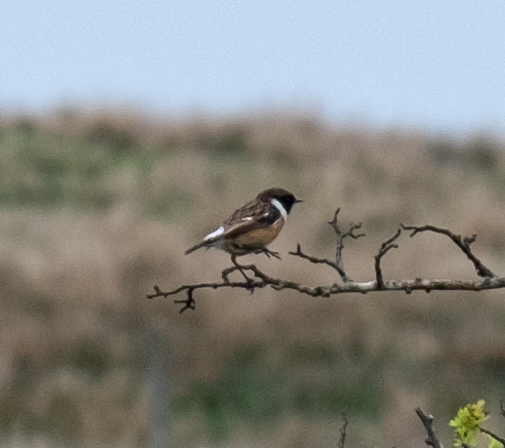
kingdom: Animalia
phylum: Chordata
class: Aves
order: Passeriformes
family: Muscicapidae
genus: Saxicola
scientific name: Saxicola rubicola
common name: European stonechat
